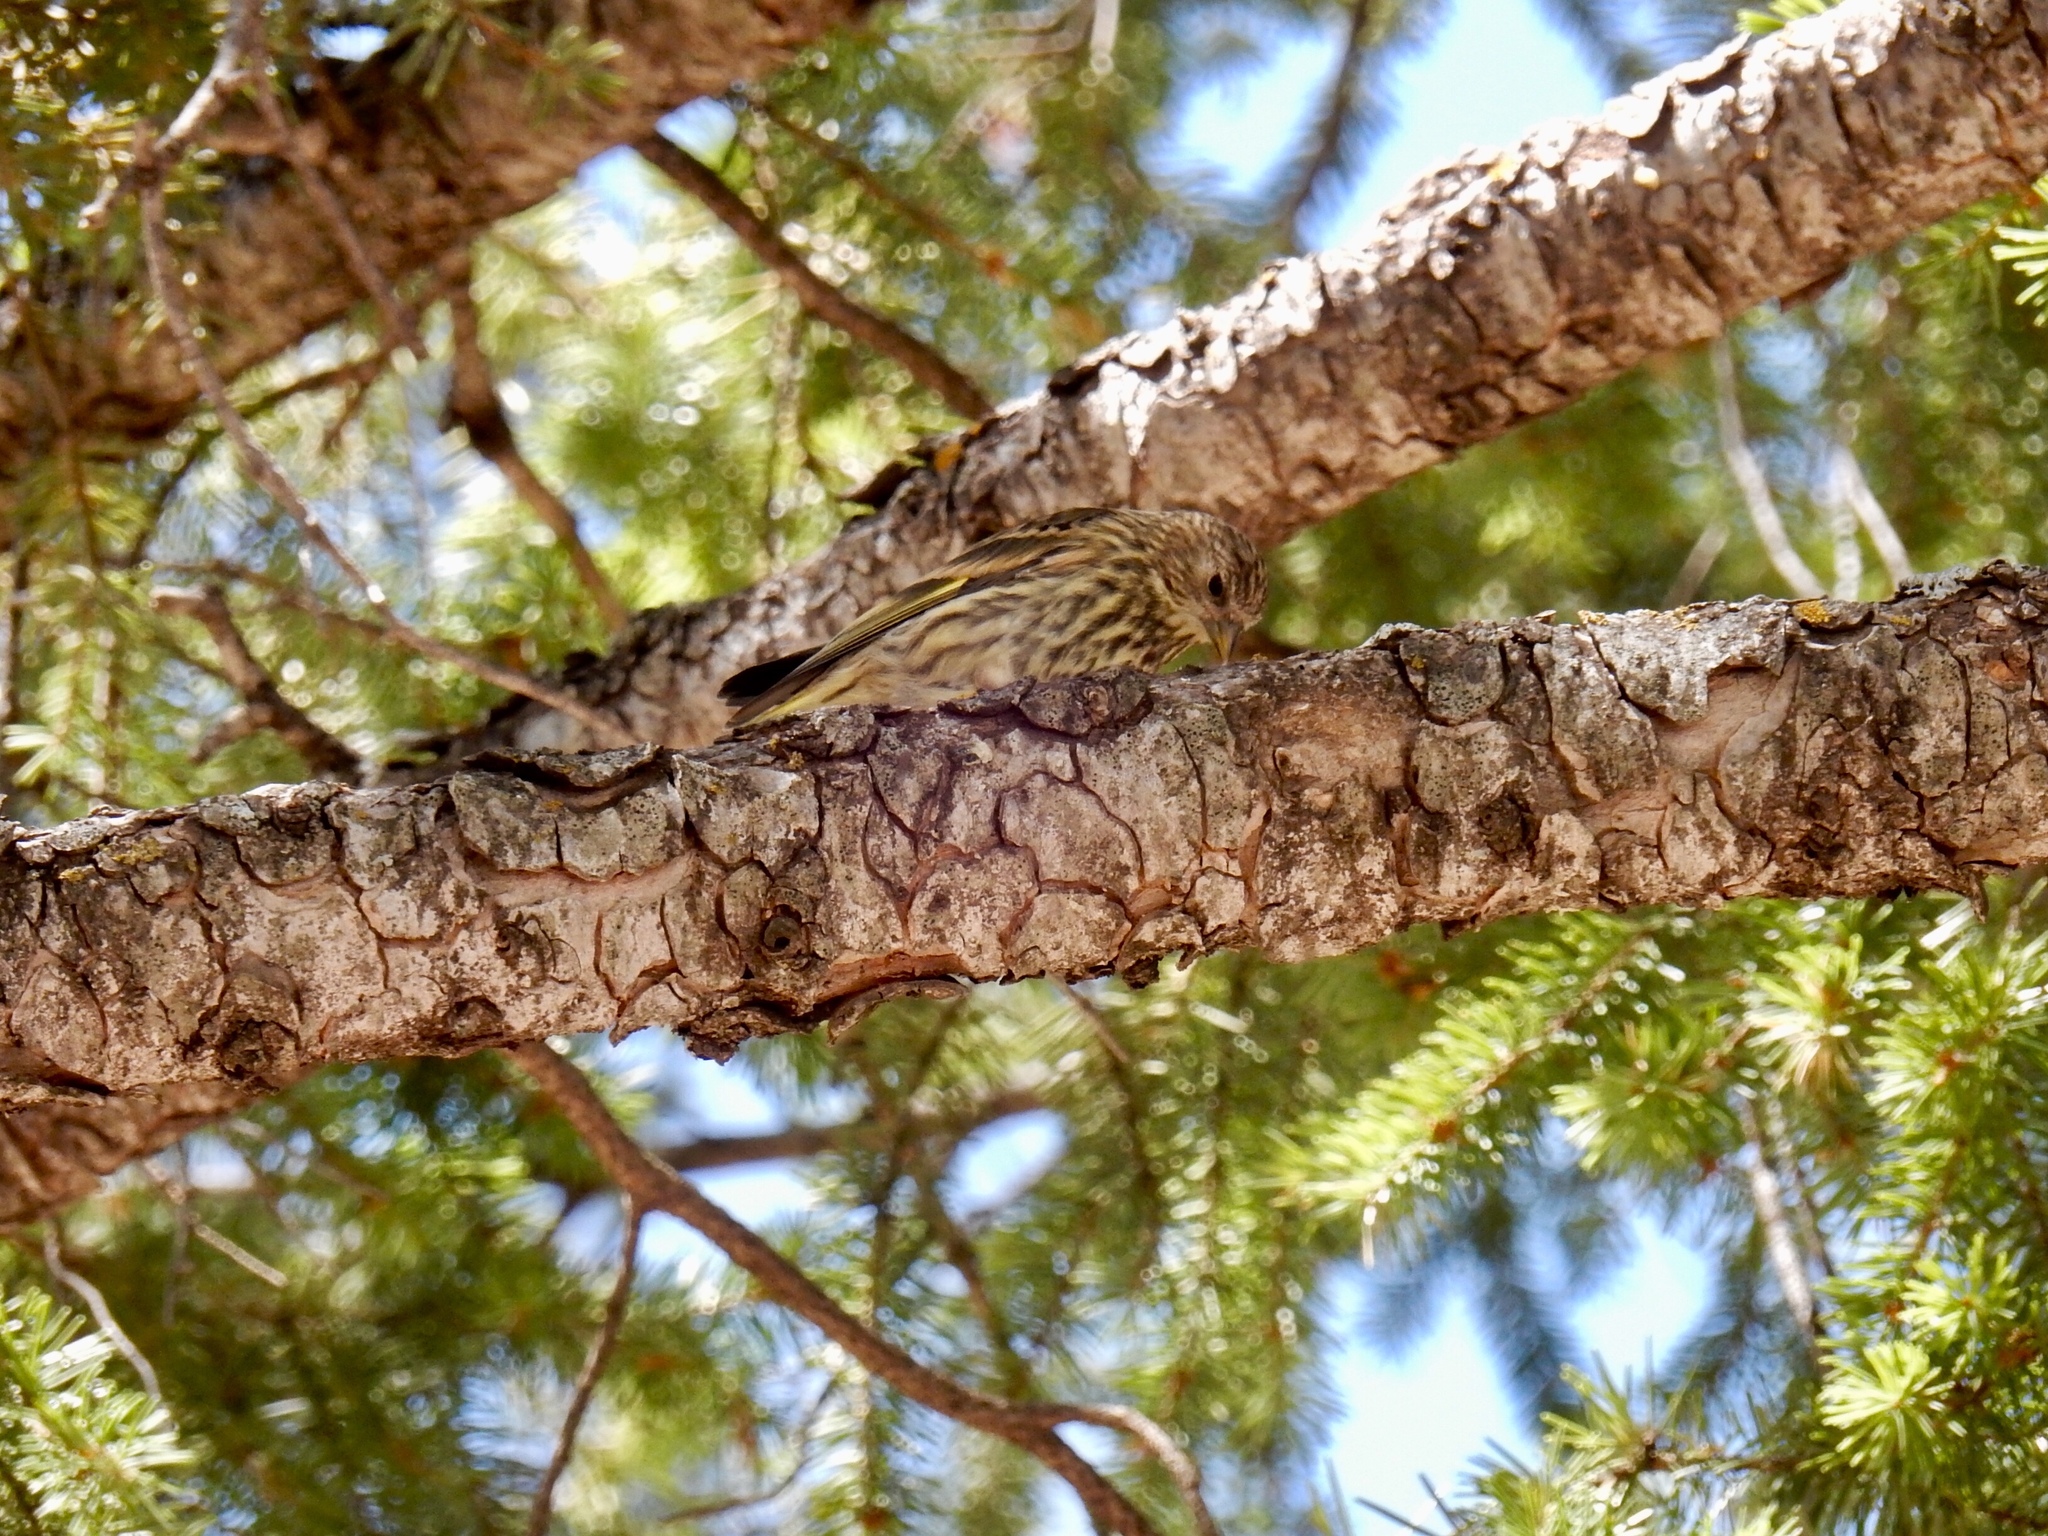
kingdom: Animalia
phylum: Chordata
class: Aves
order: Passeriformes
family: Fringillidae
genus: Spinus
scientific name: Spinus pinus
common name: Pine siskin
